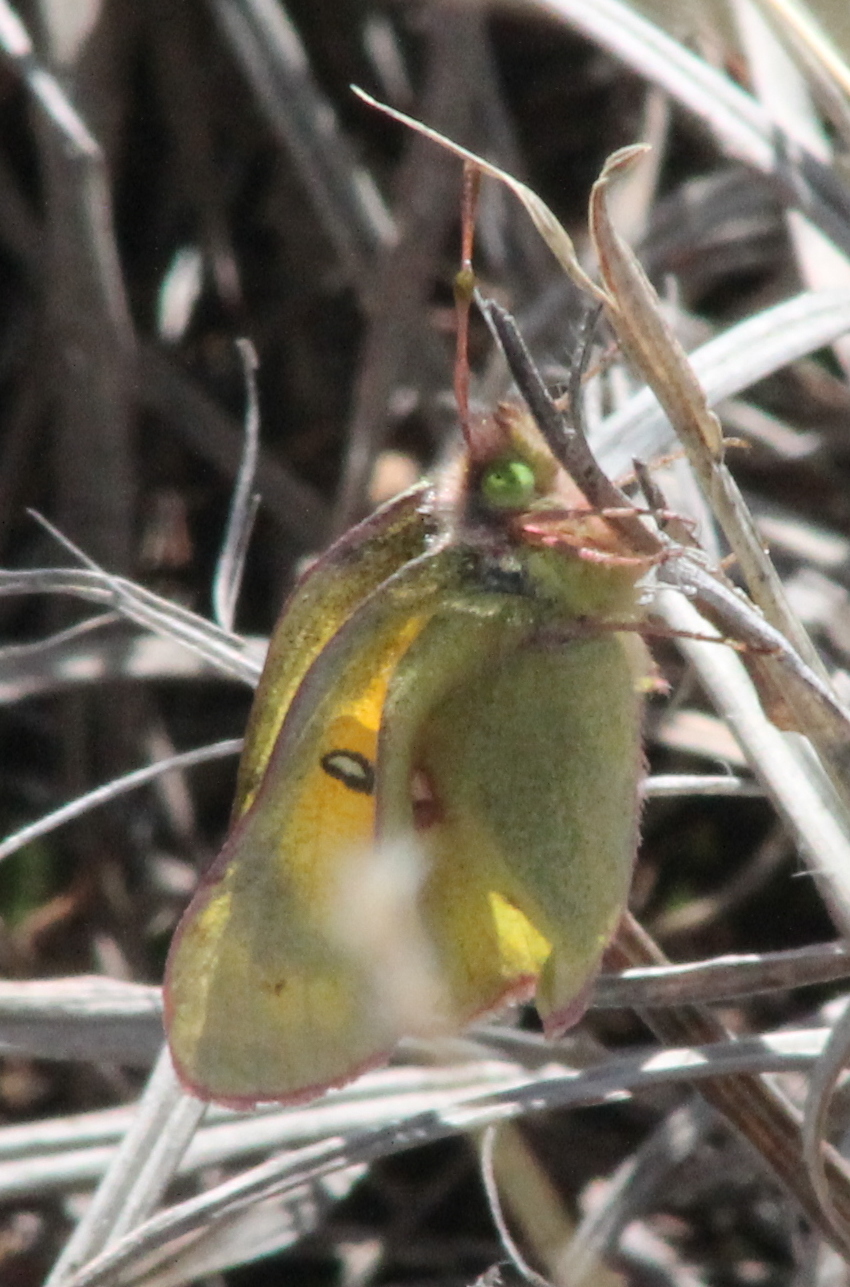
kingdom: Animalia
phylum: Arthropoda
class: Insecta
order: Lepidoptera
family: Pieridae
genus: Colias
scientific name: Colias eurytheme
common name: Alfalfa butterfly
